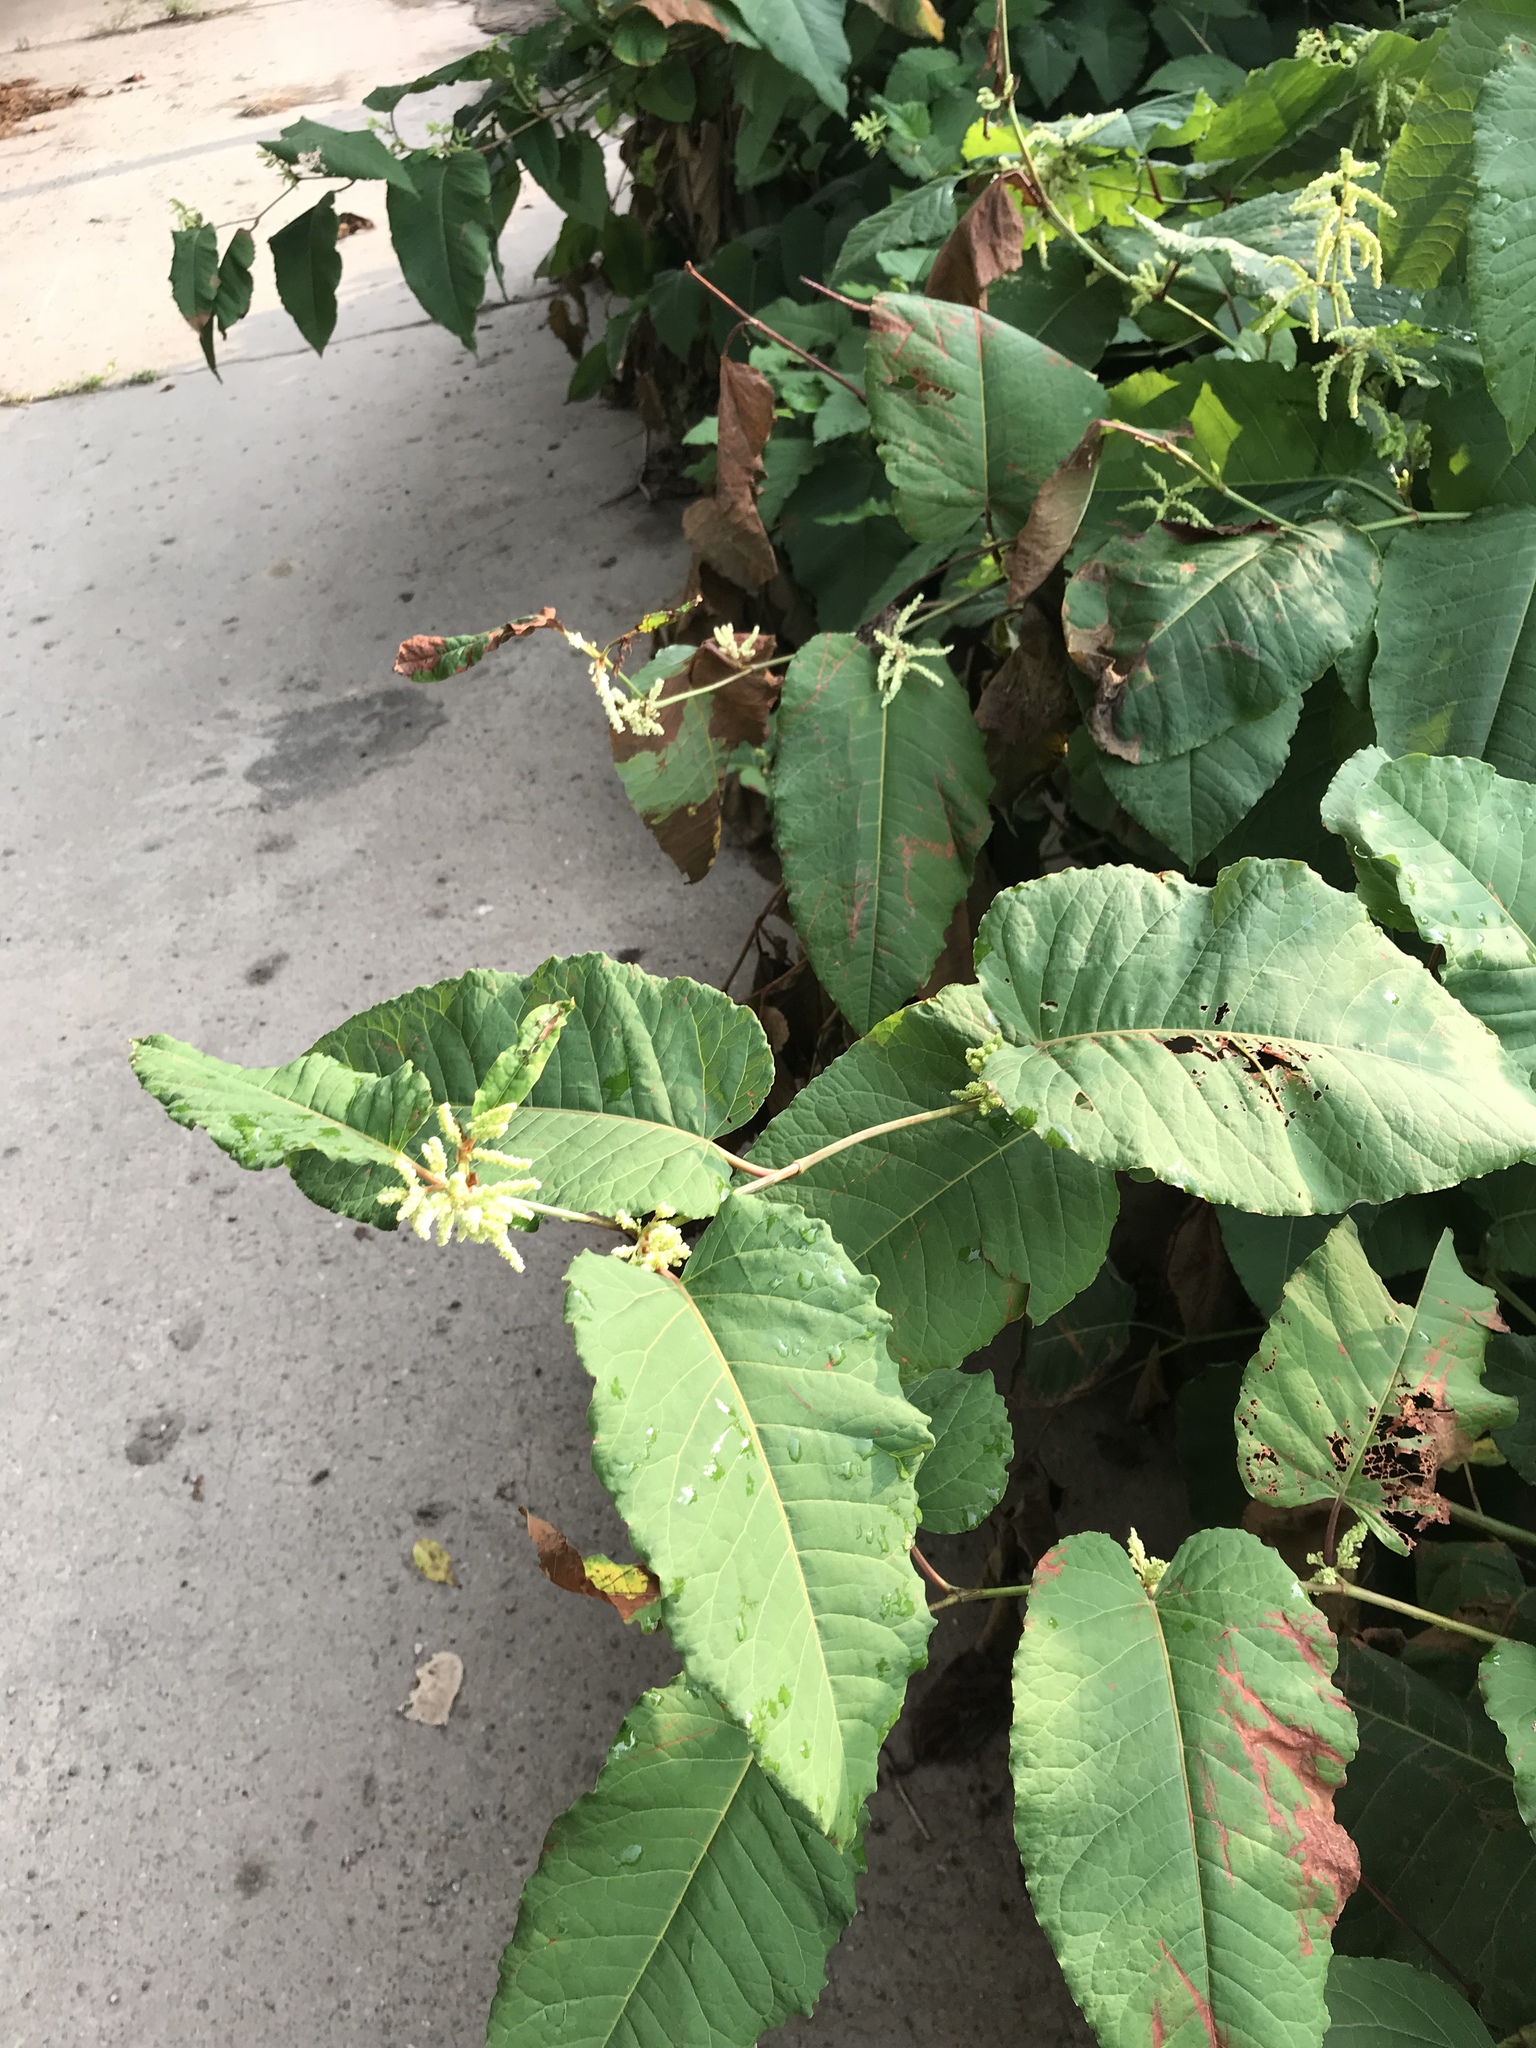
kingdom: Plantae
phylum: Tracheophyta
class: Magnoliopsida
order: Caryophyllales
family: Polygonaceae
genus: Reynoutria
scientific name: Reynoutria sachalinensis
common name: Giant knotweed
